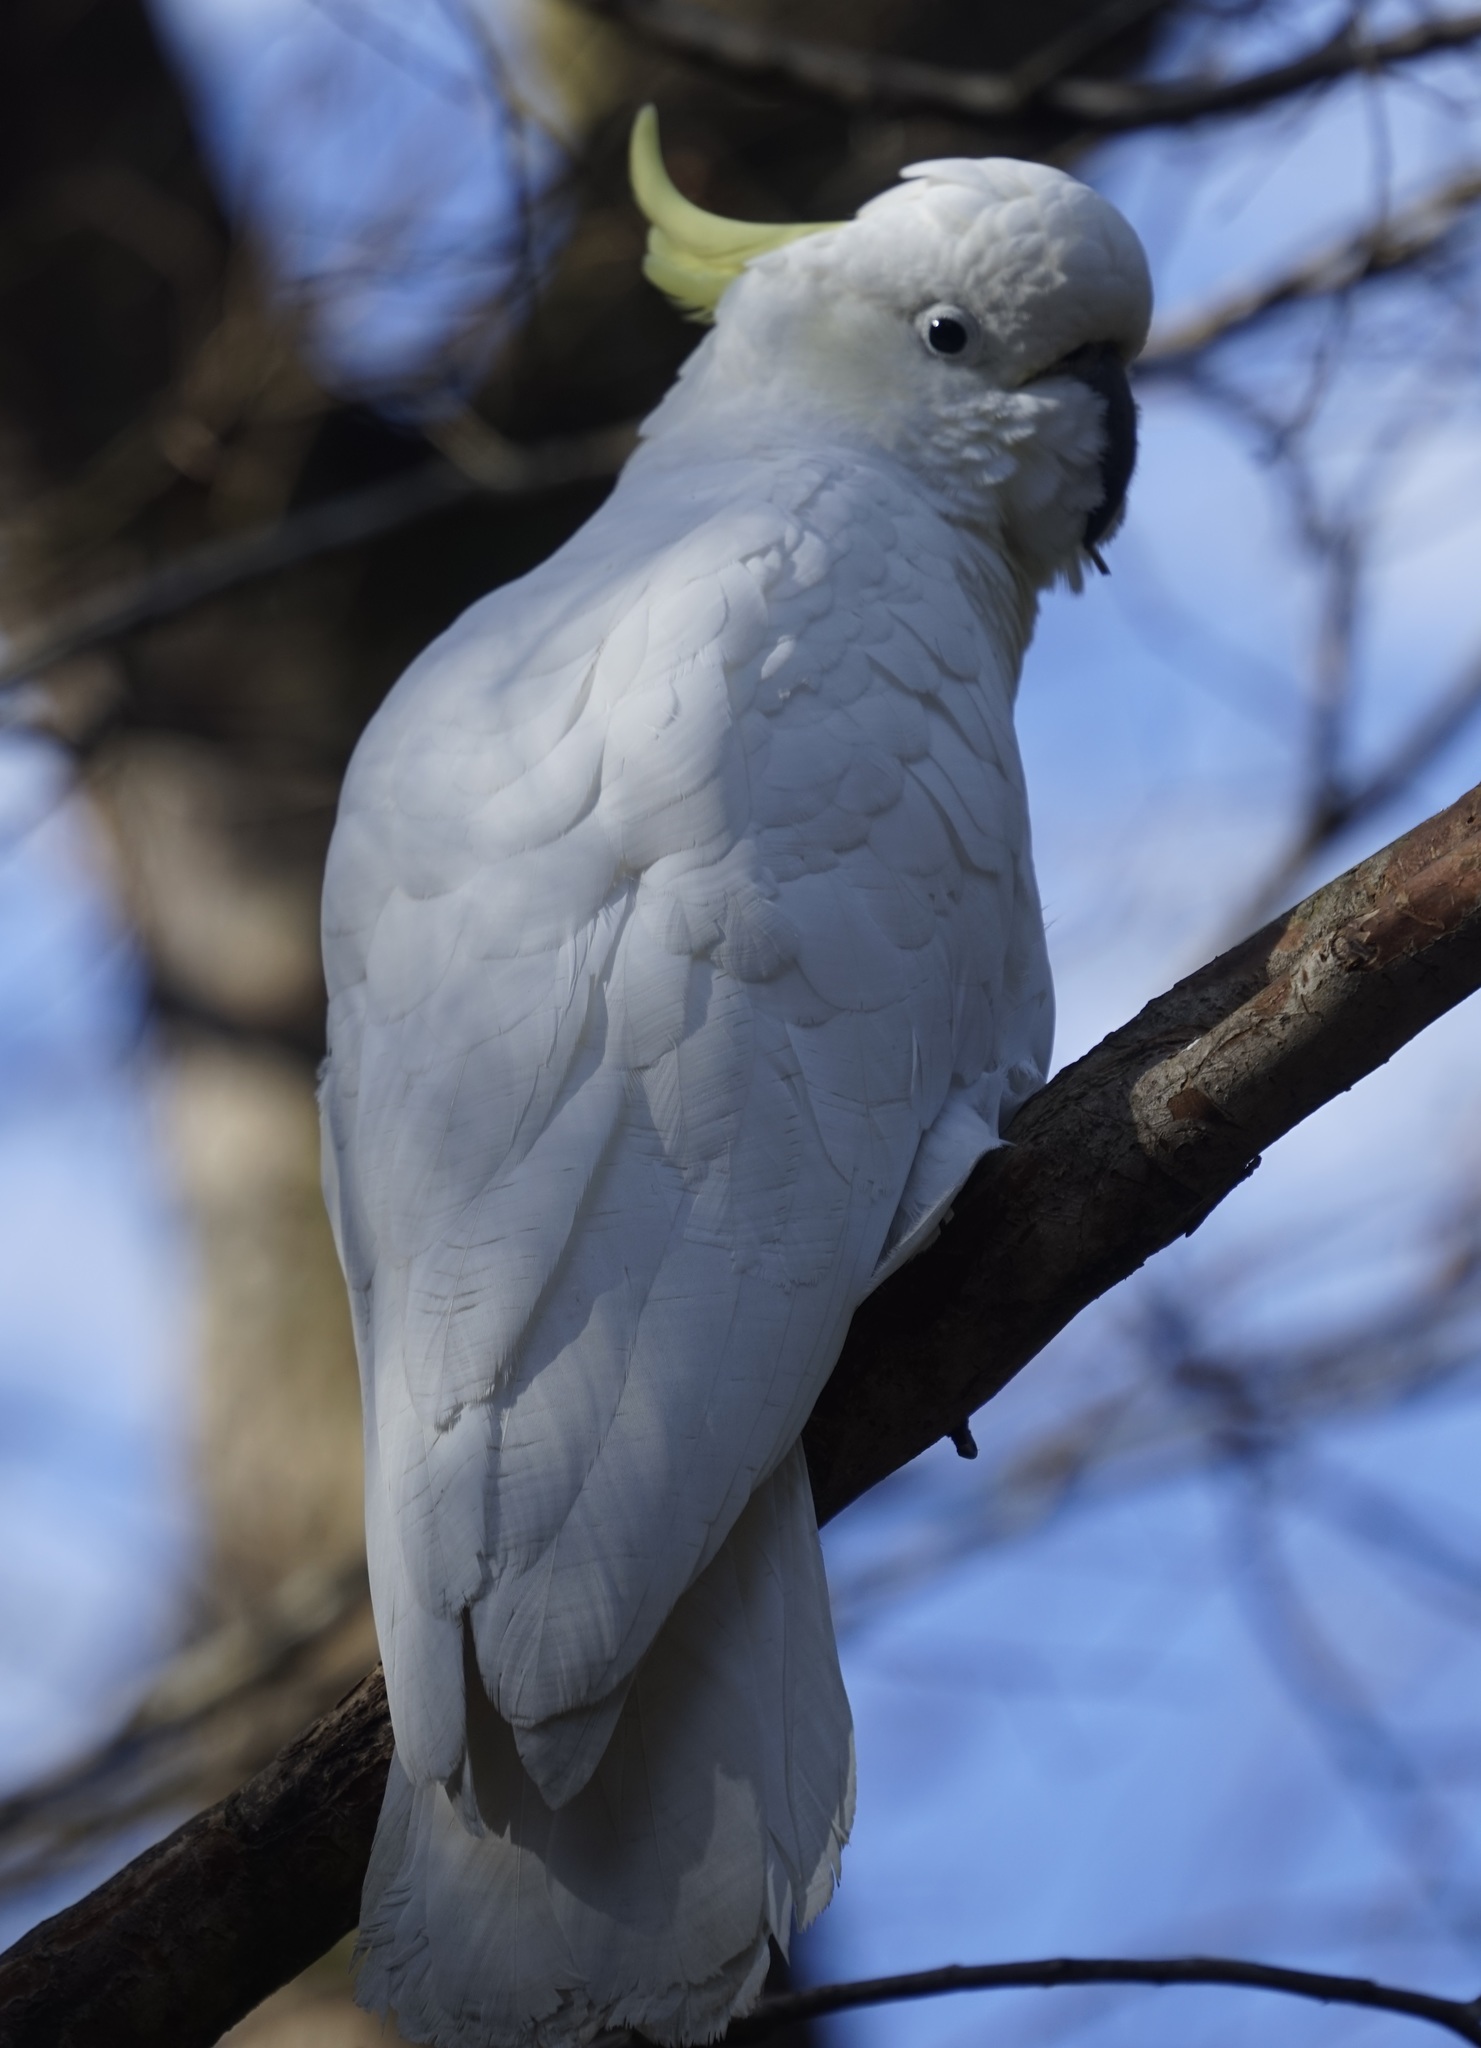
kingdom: Animalia
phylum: Chordata
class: Aves
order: Psittaciformes
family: Psittacidae
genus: Cacatua
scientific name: Cacatua galerita
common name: Sulphur-crested cockatoo
